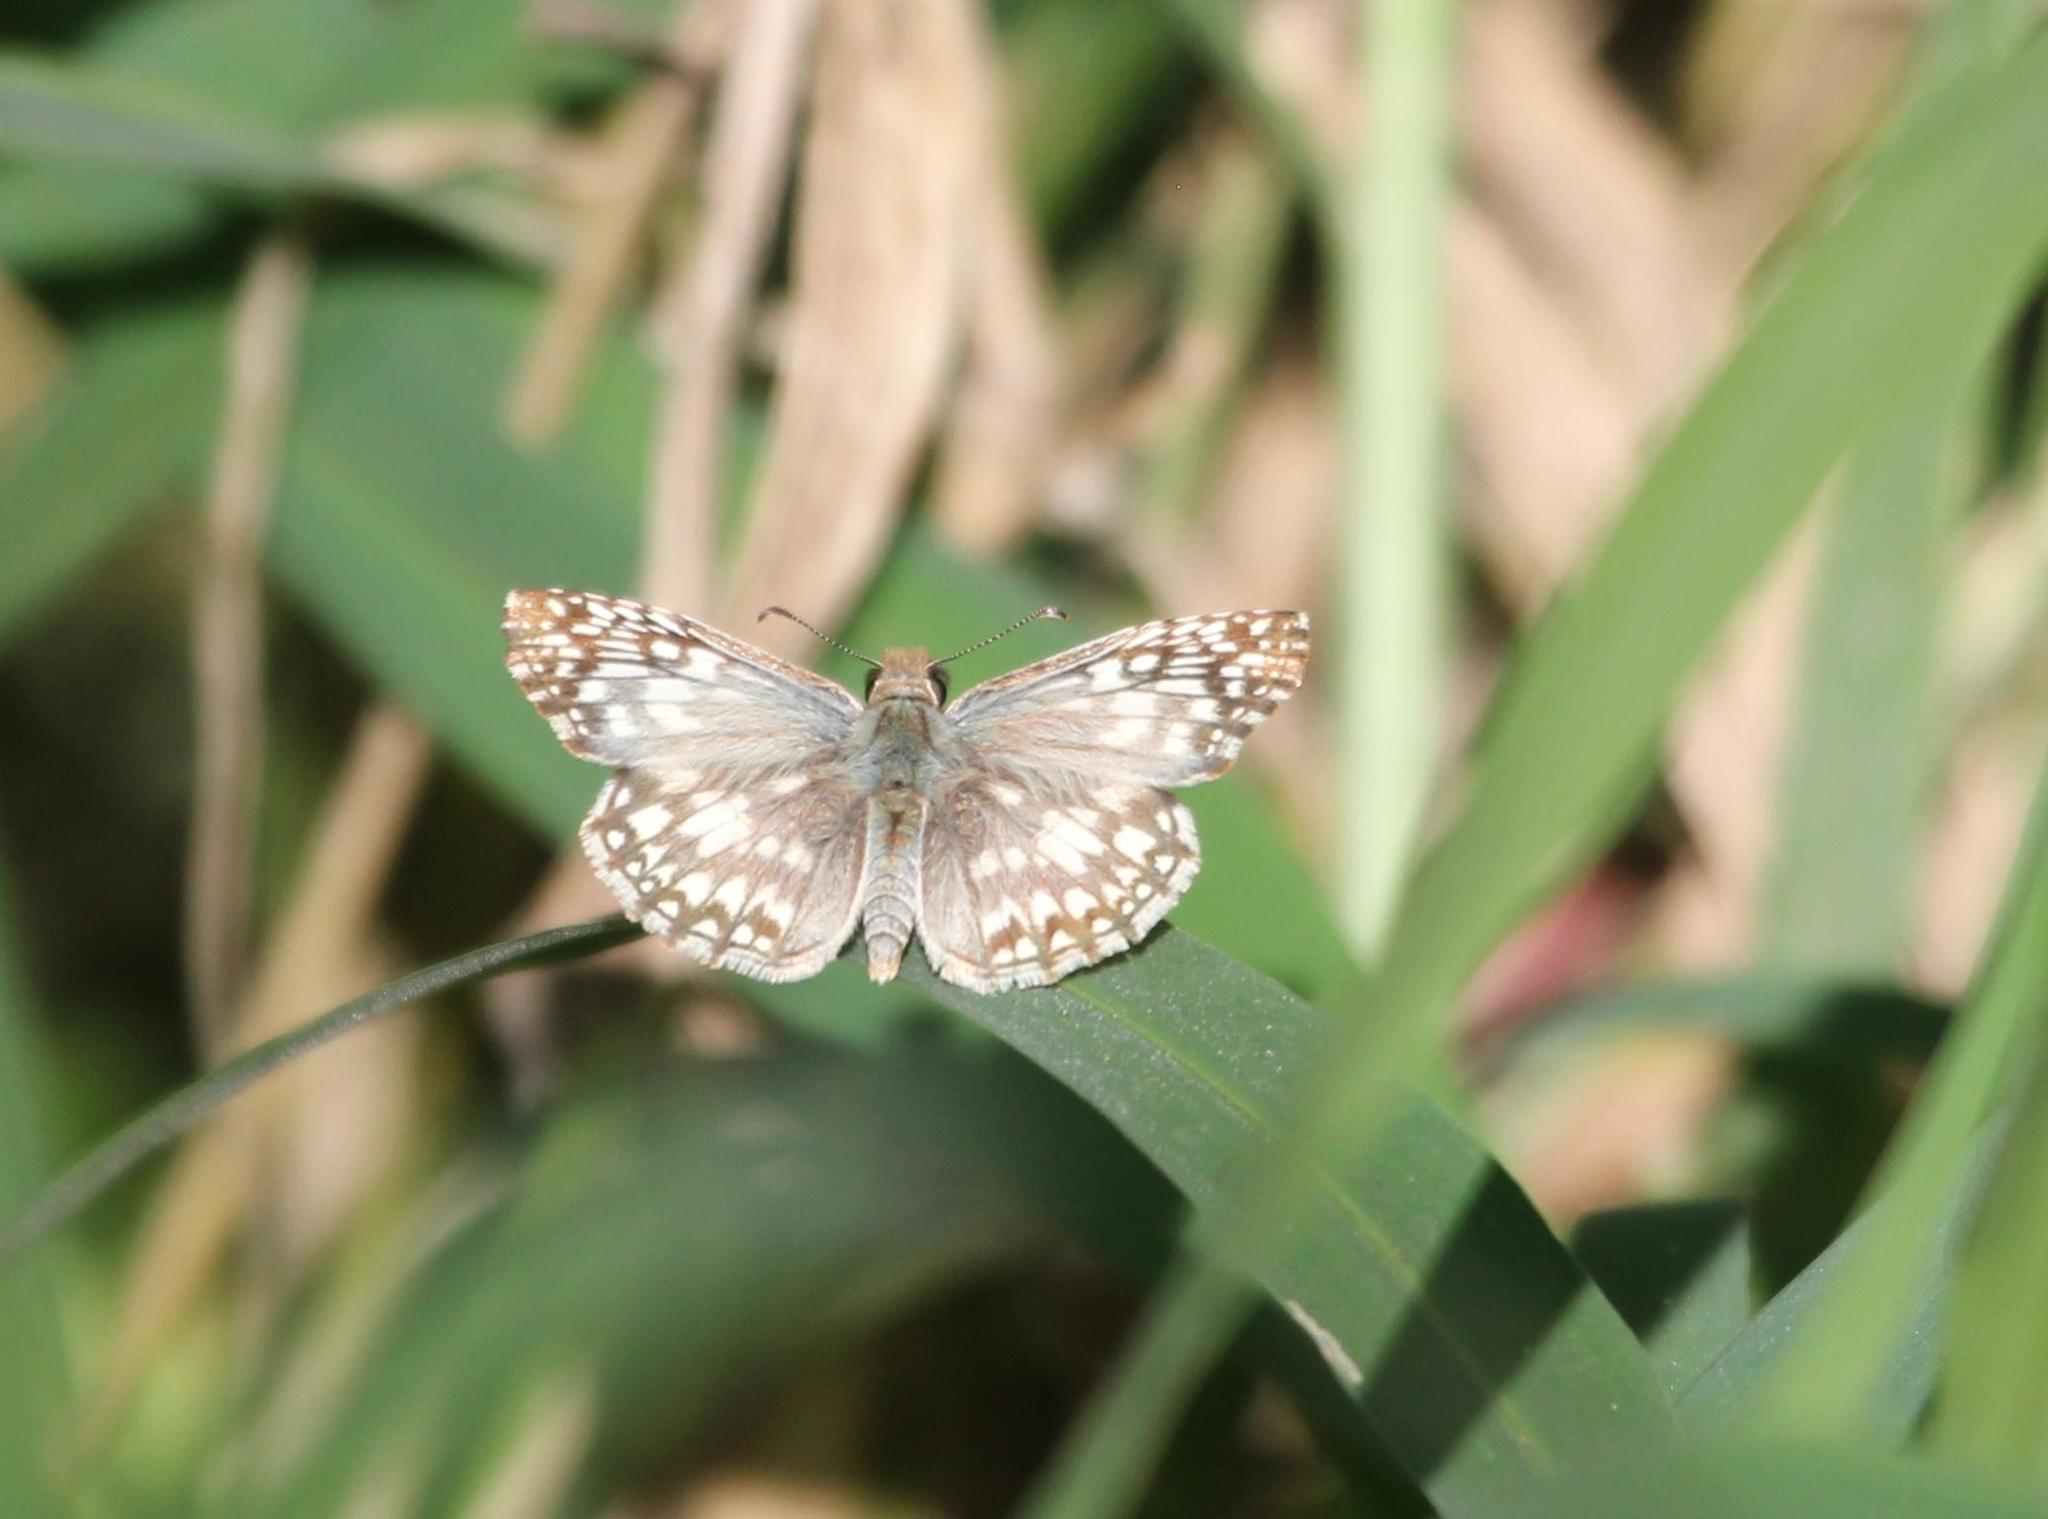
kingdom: Animalia
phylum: Arthropoda
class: Insecta
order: Lepidoptera
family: Hesperiidae
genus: Pyrgus
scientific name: Pyrgus oileus
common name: Tropical checkered-skipper
